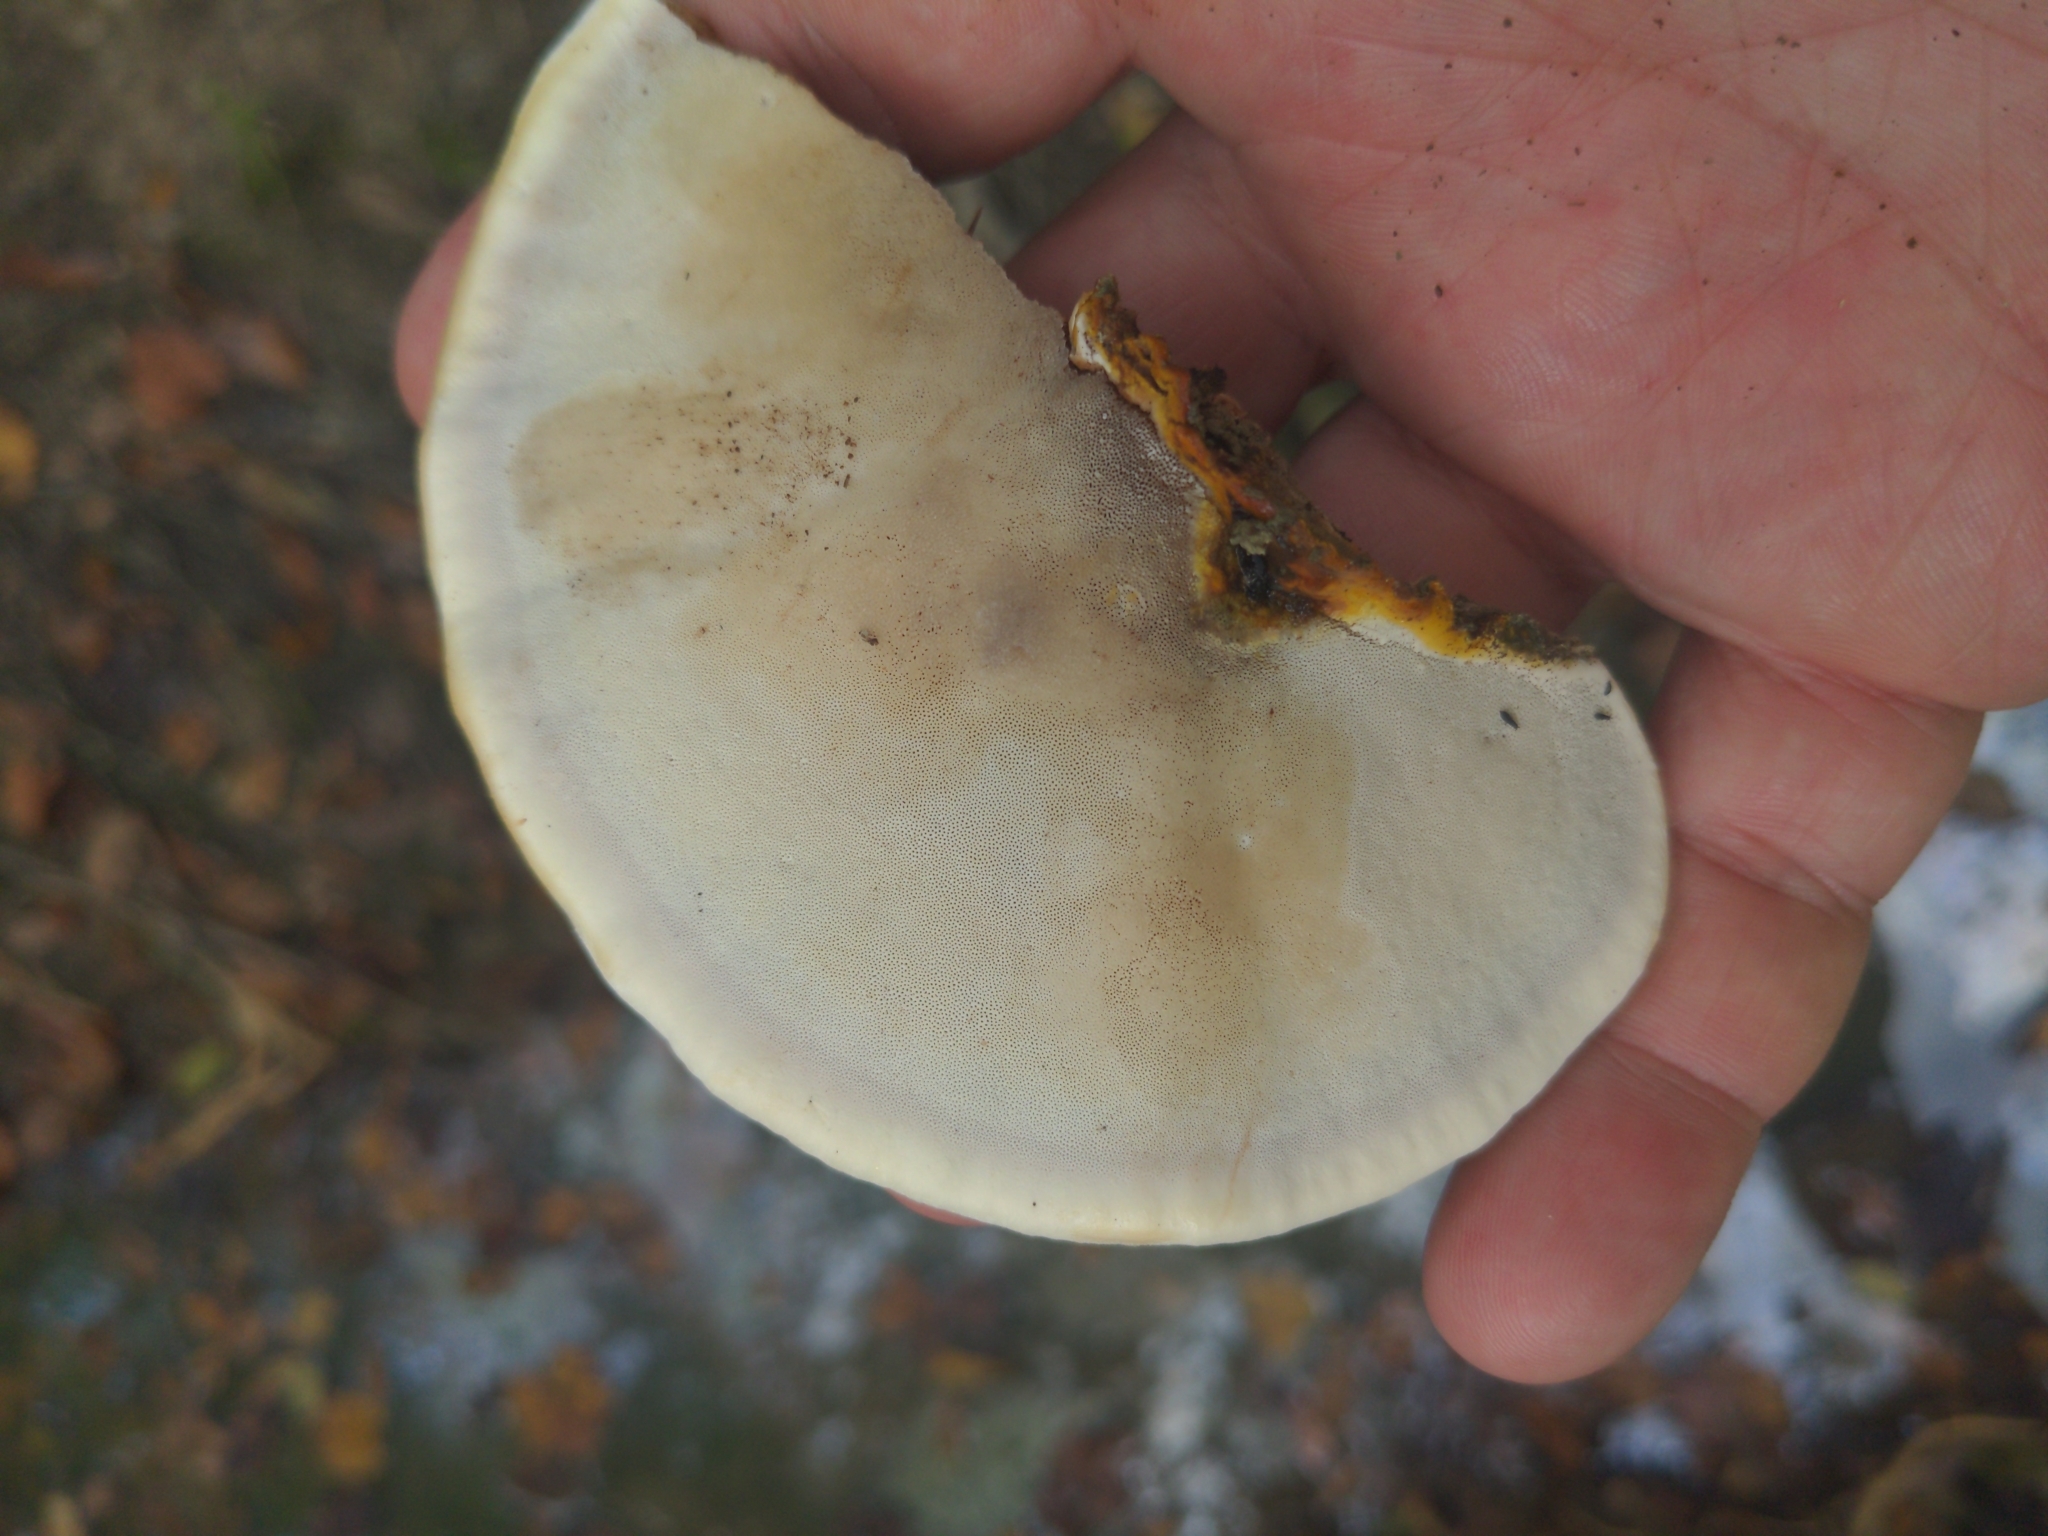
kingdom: Fungi
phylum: Basidiomycota
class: Agaricomycetes
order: Polyporales
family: Polyporaceae
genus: Ganoderma
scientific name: Ganoderma curtisii
